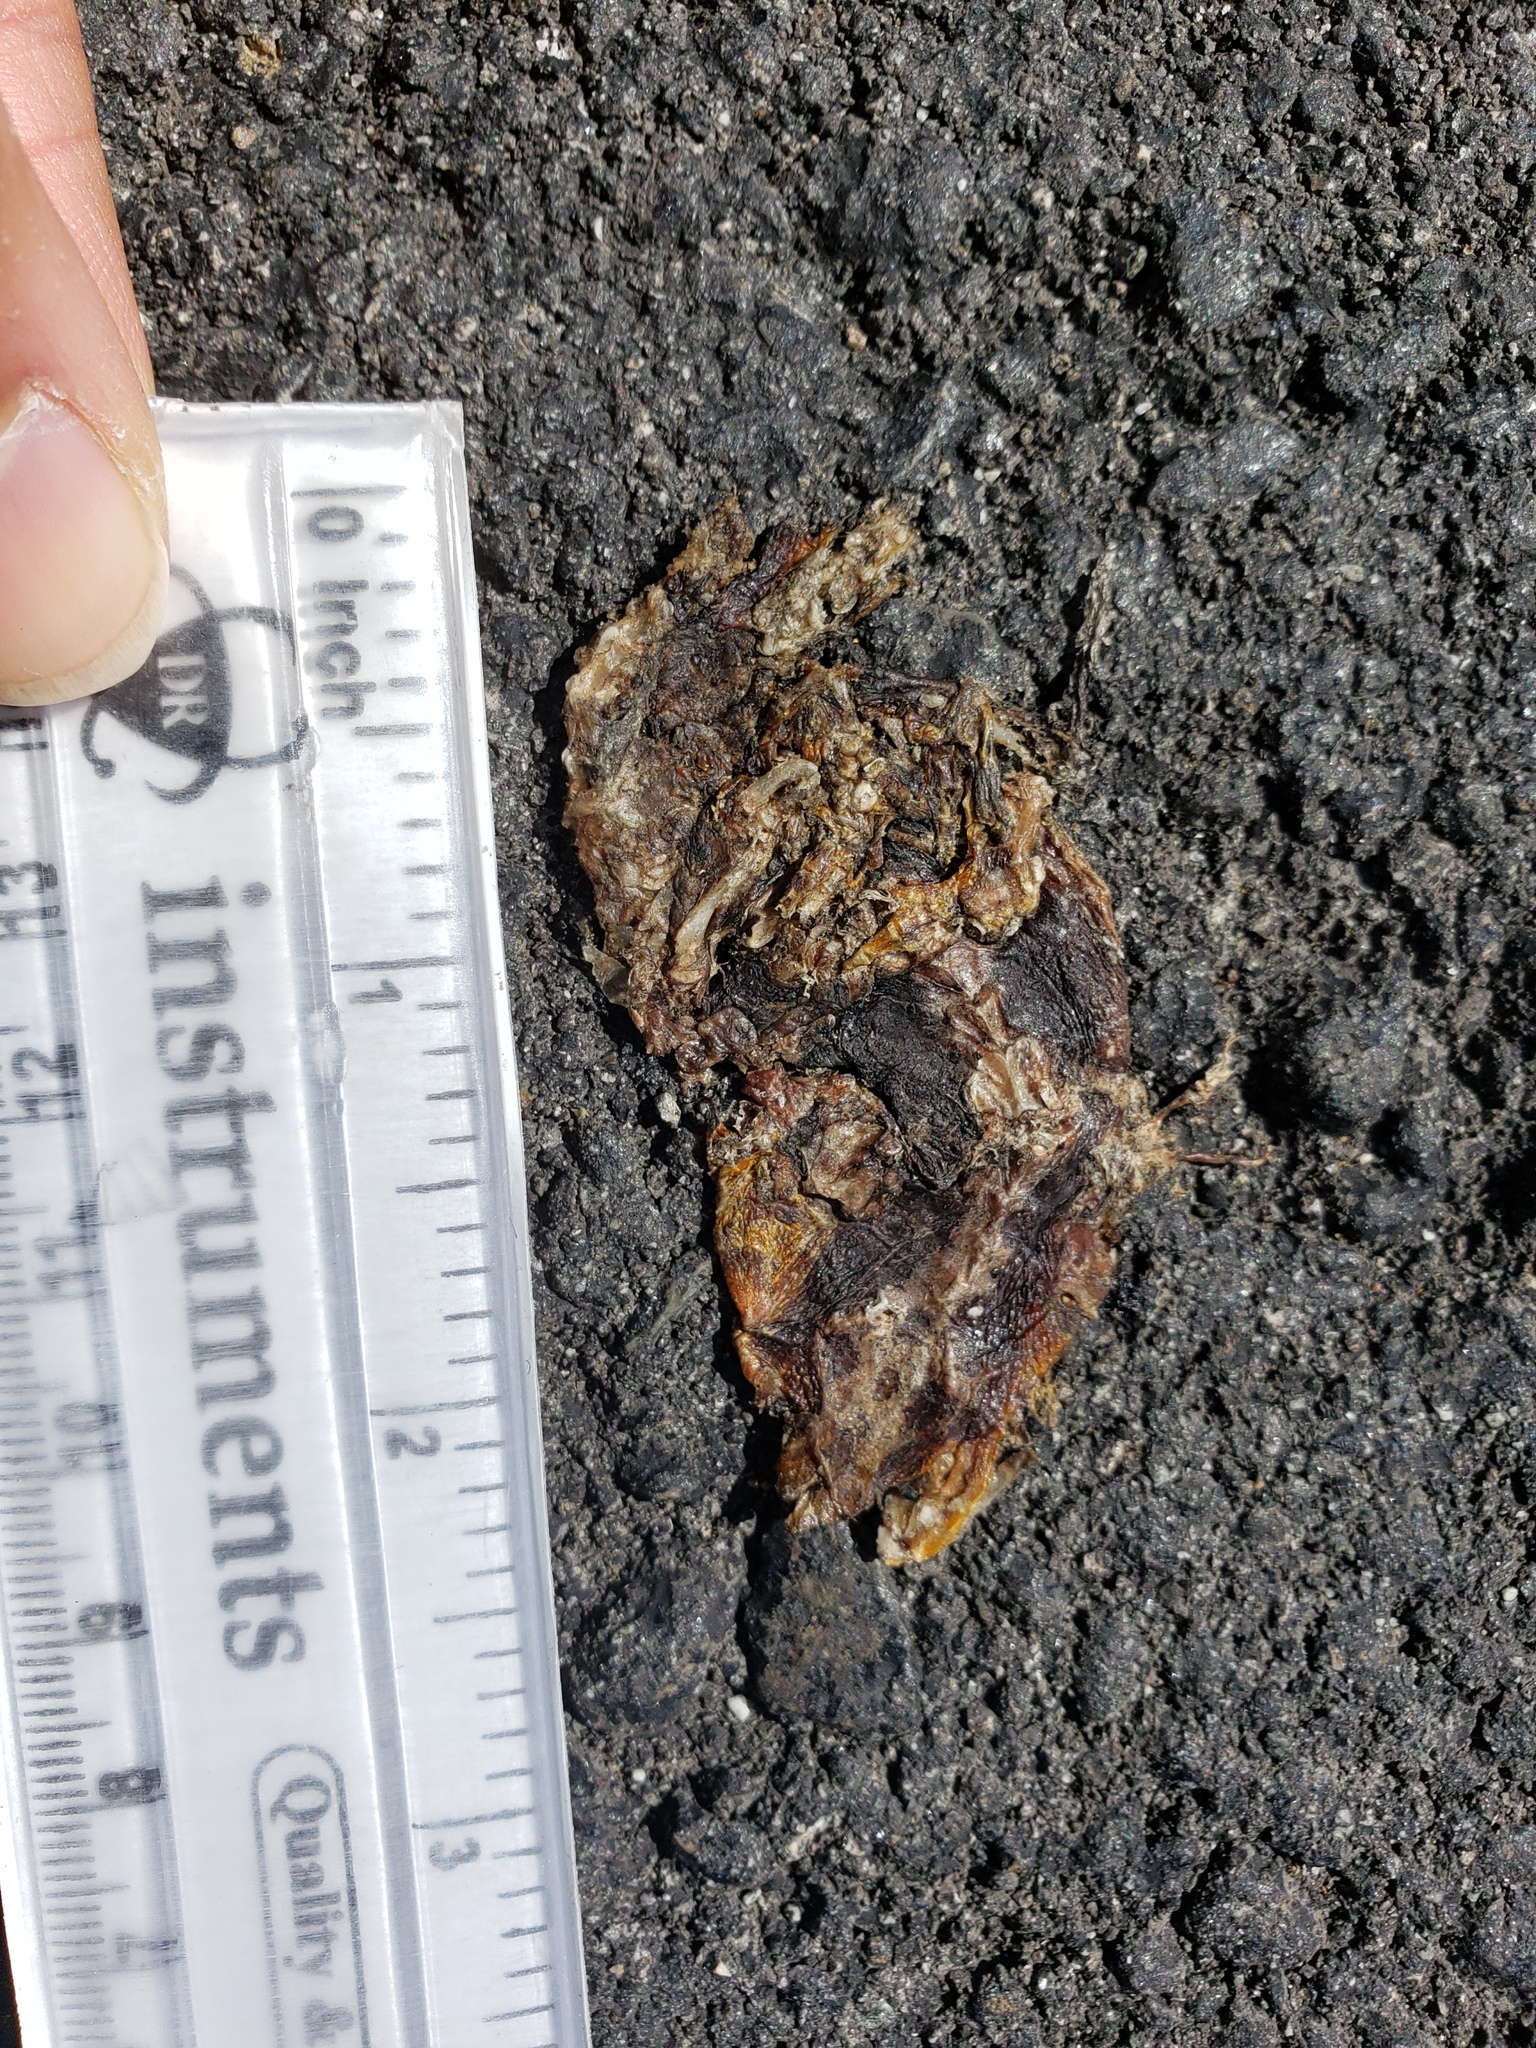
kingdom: Animalia
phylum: Chordata
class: Amphibia
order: Caudata
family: Salamandridae
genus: Taricha
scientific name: Taricha
